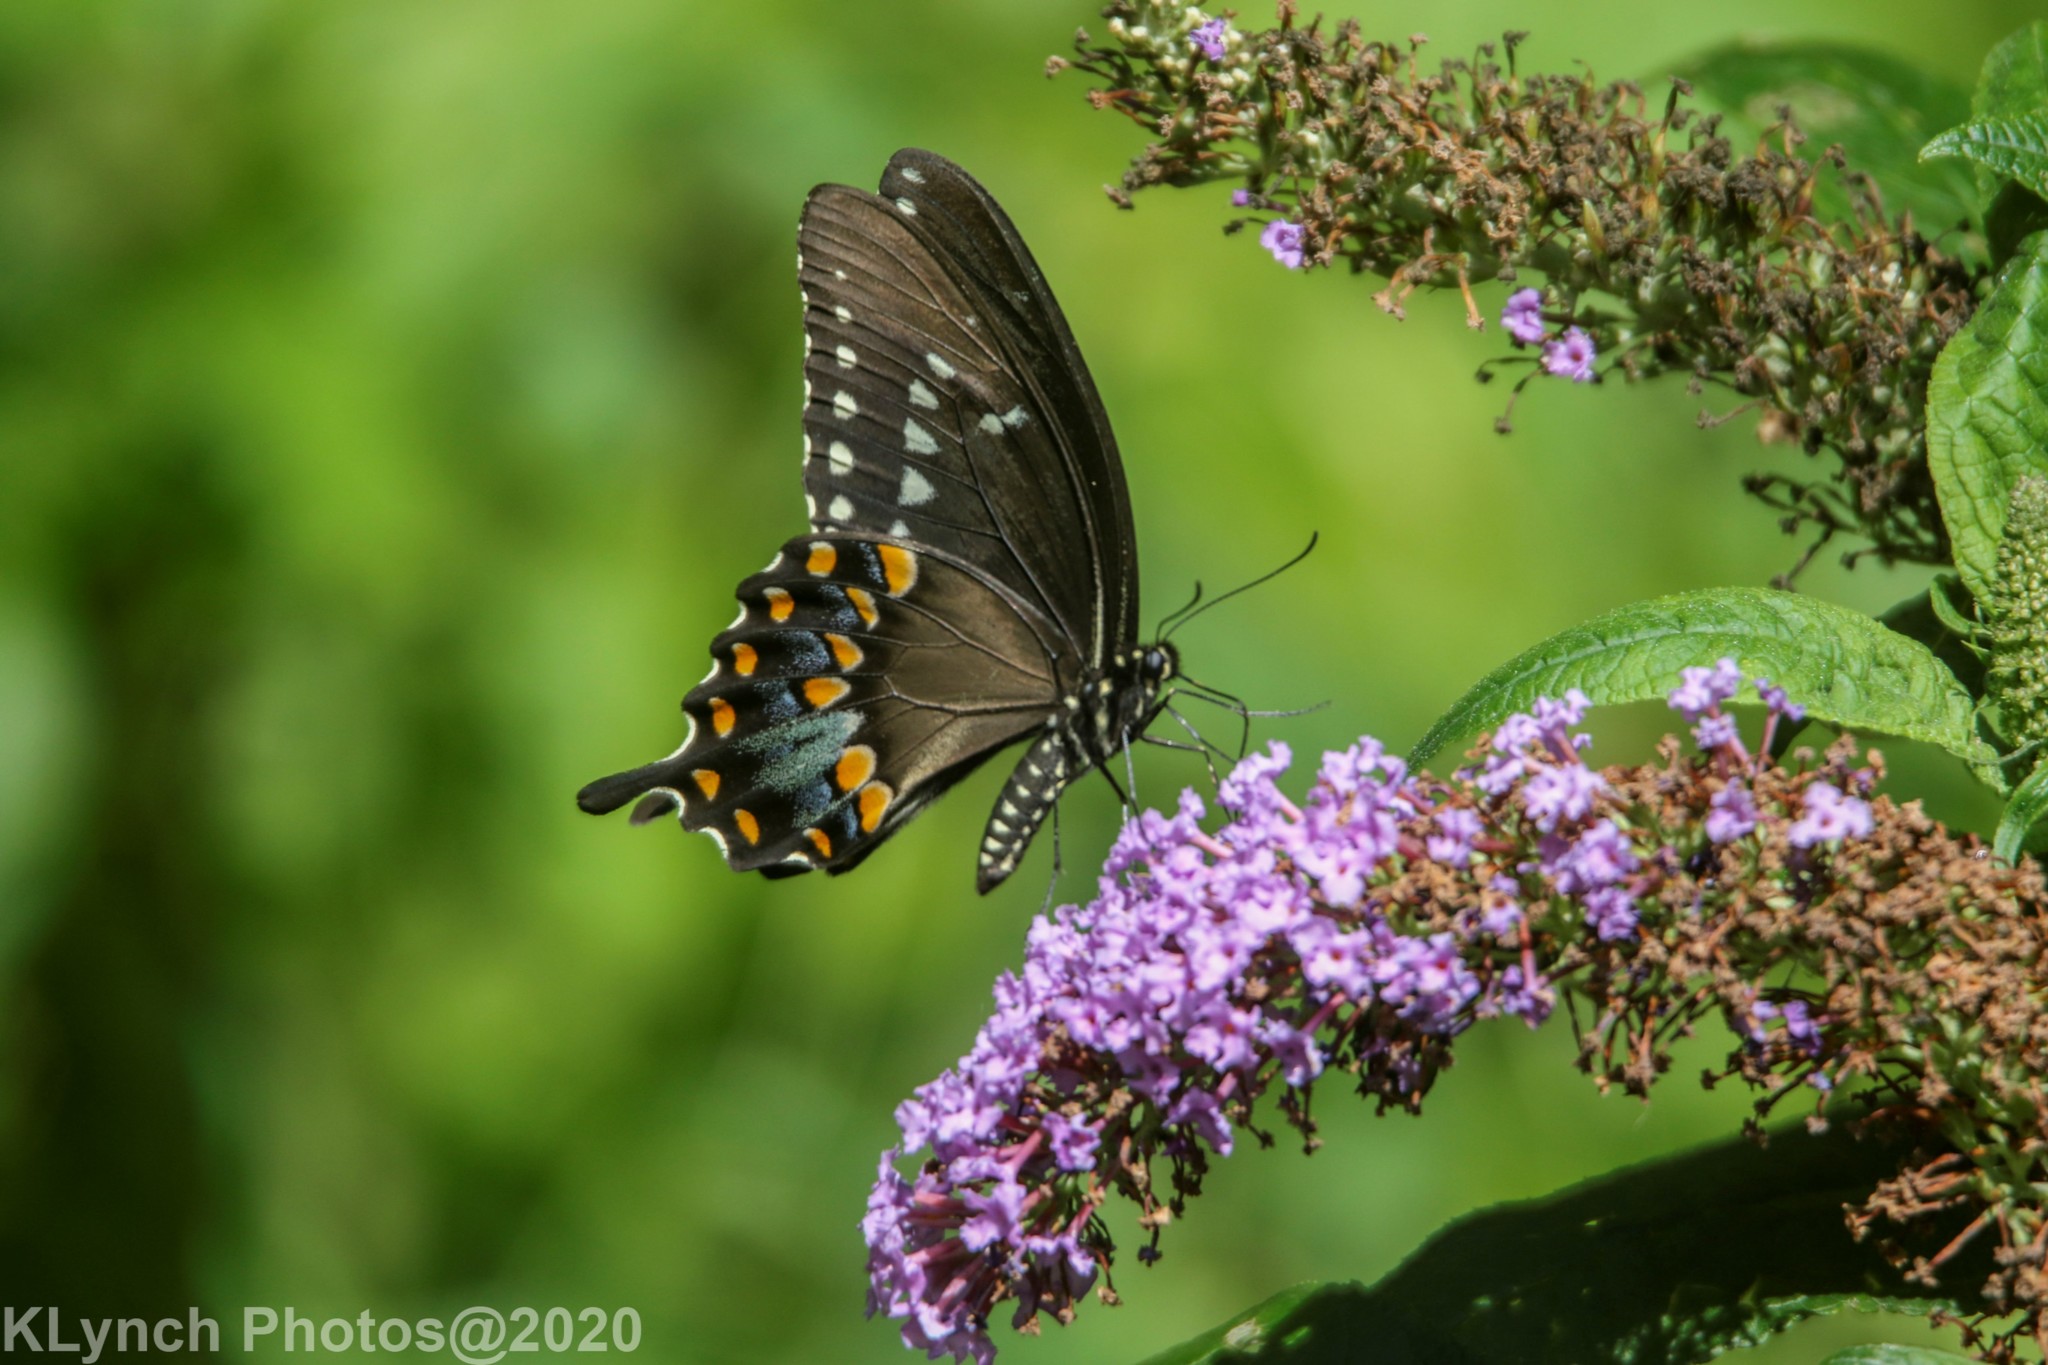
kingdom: Animalia
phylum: Arthropoda
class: Insecta
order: Lepidoptera
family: Papilionidae
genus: Papilio
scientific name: Papilio troilus
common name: Spicebush swallowtail
